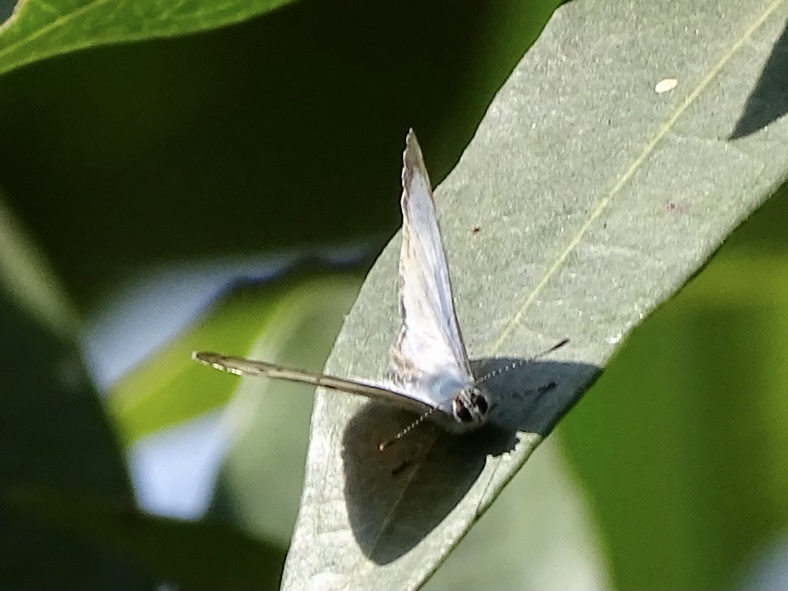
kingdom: Animalia
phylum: Arthropoda
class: Insecta
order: Lepidoptera
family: Lycaenidae
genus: Acytolepis
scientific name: Acytolepis puspa
